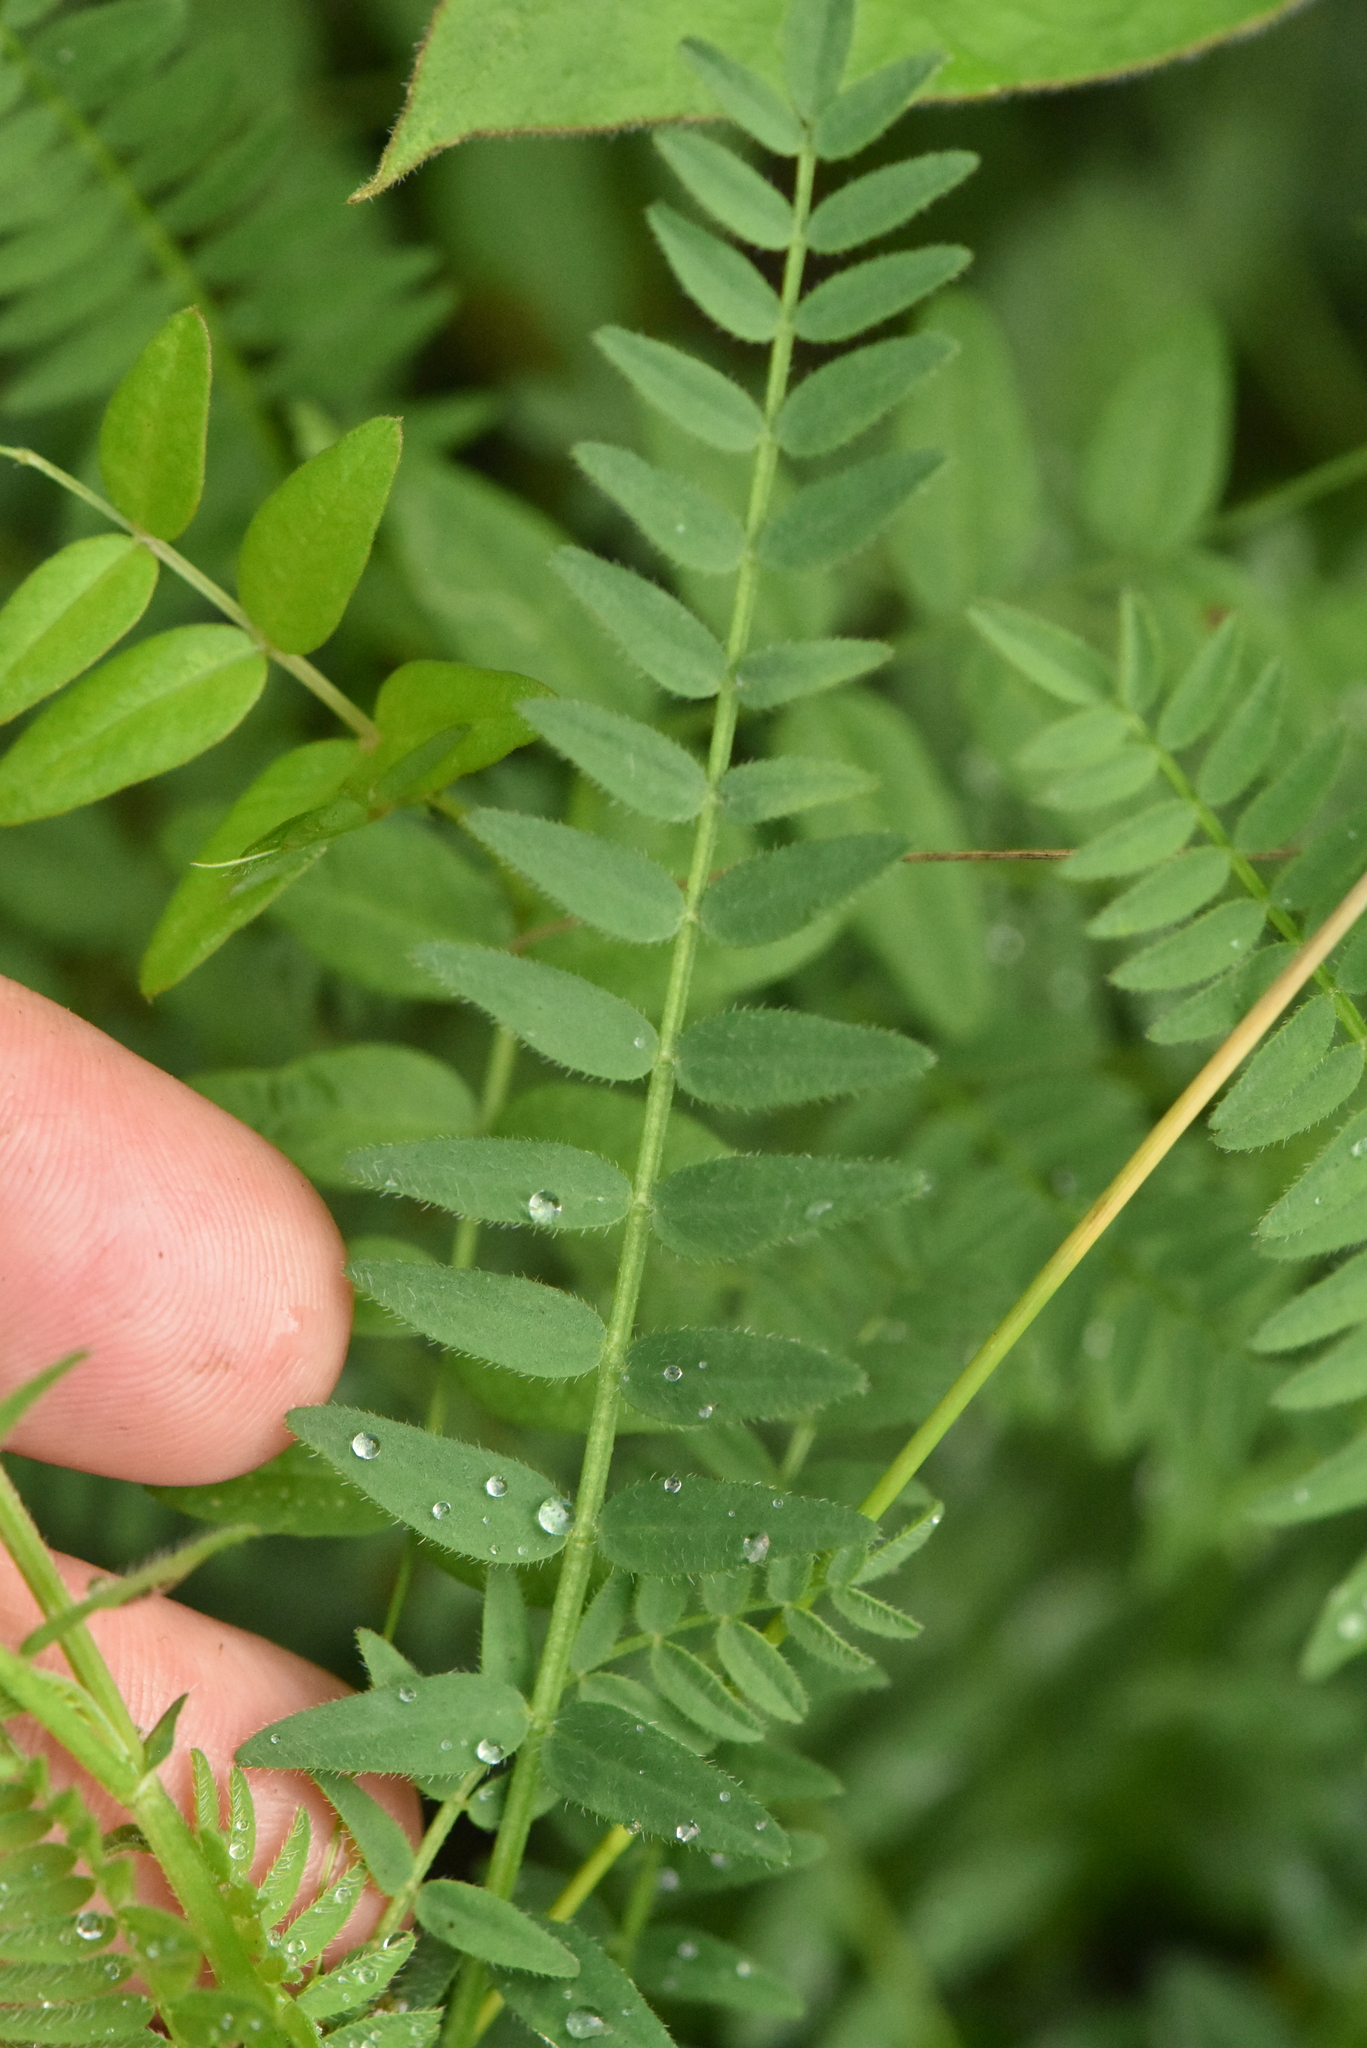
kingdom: Plantae
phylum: Tracheophyta
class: Magnoliopsida
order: Fabales
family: Fabaceae
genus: Astragalus
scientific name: Astragalus danicus
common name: Purple milk-vetch
